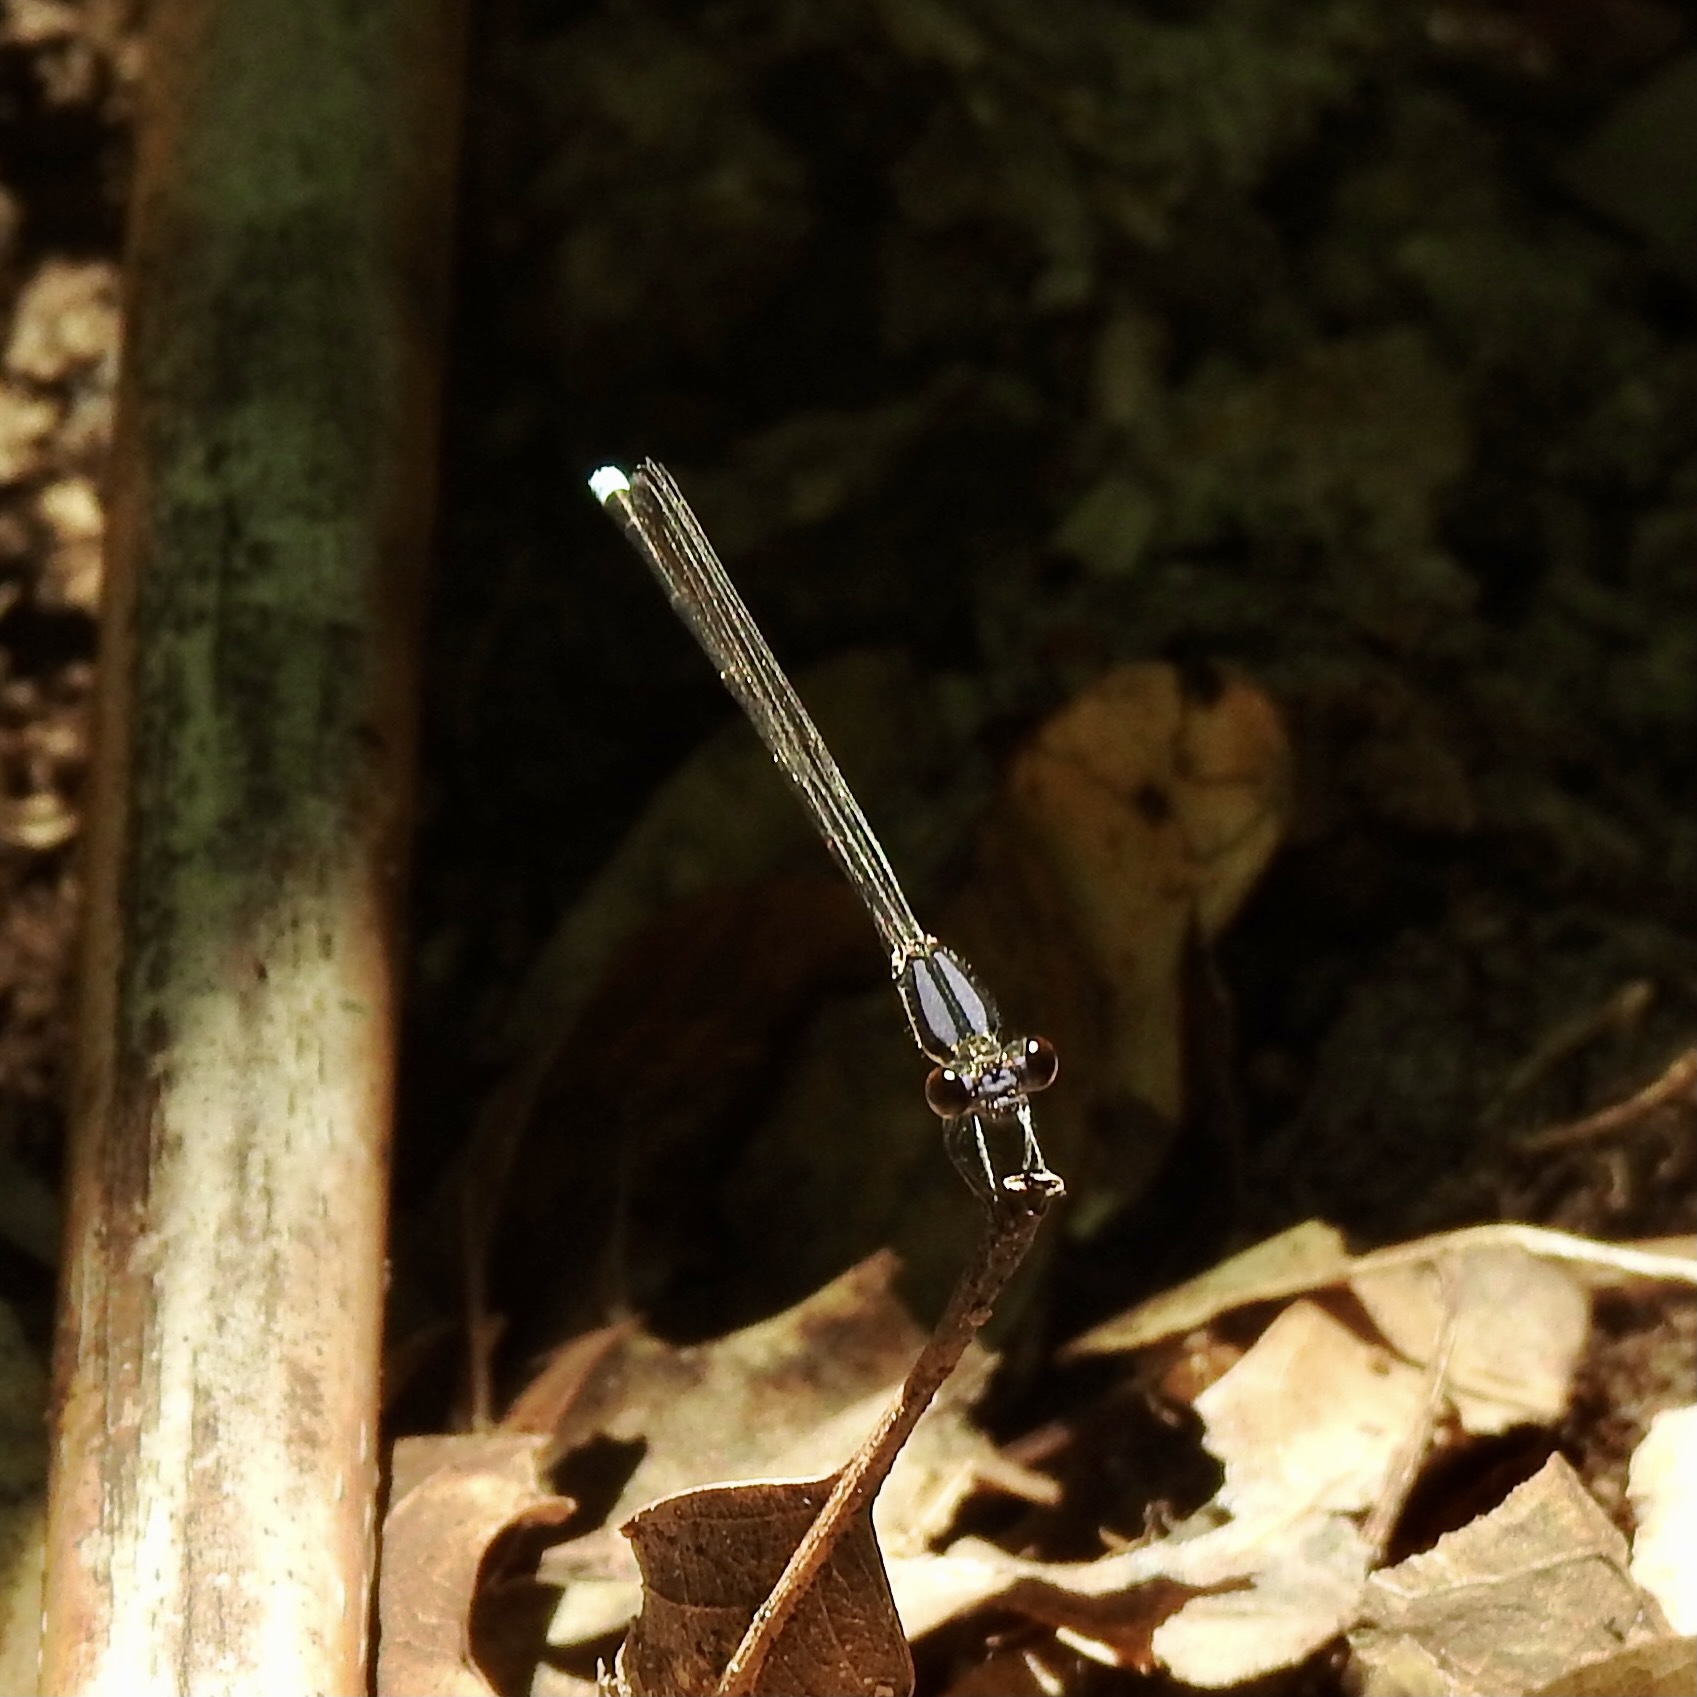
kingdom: Animalia
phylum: Arthropoda
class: Insecta
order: Odonata
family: Coenagrionidae
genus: Argia
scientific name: Argia tibialis
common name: Blue-tipped dancer
